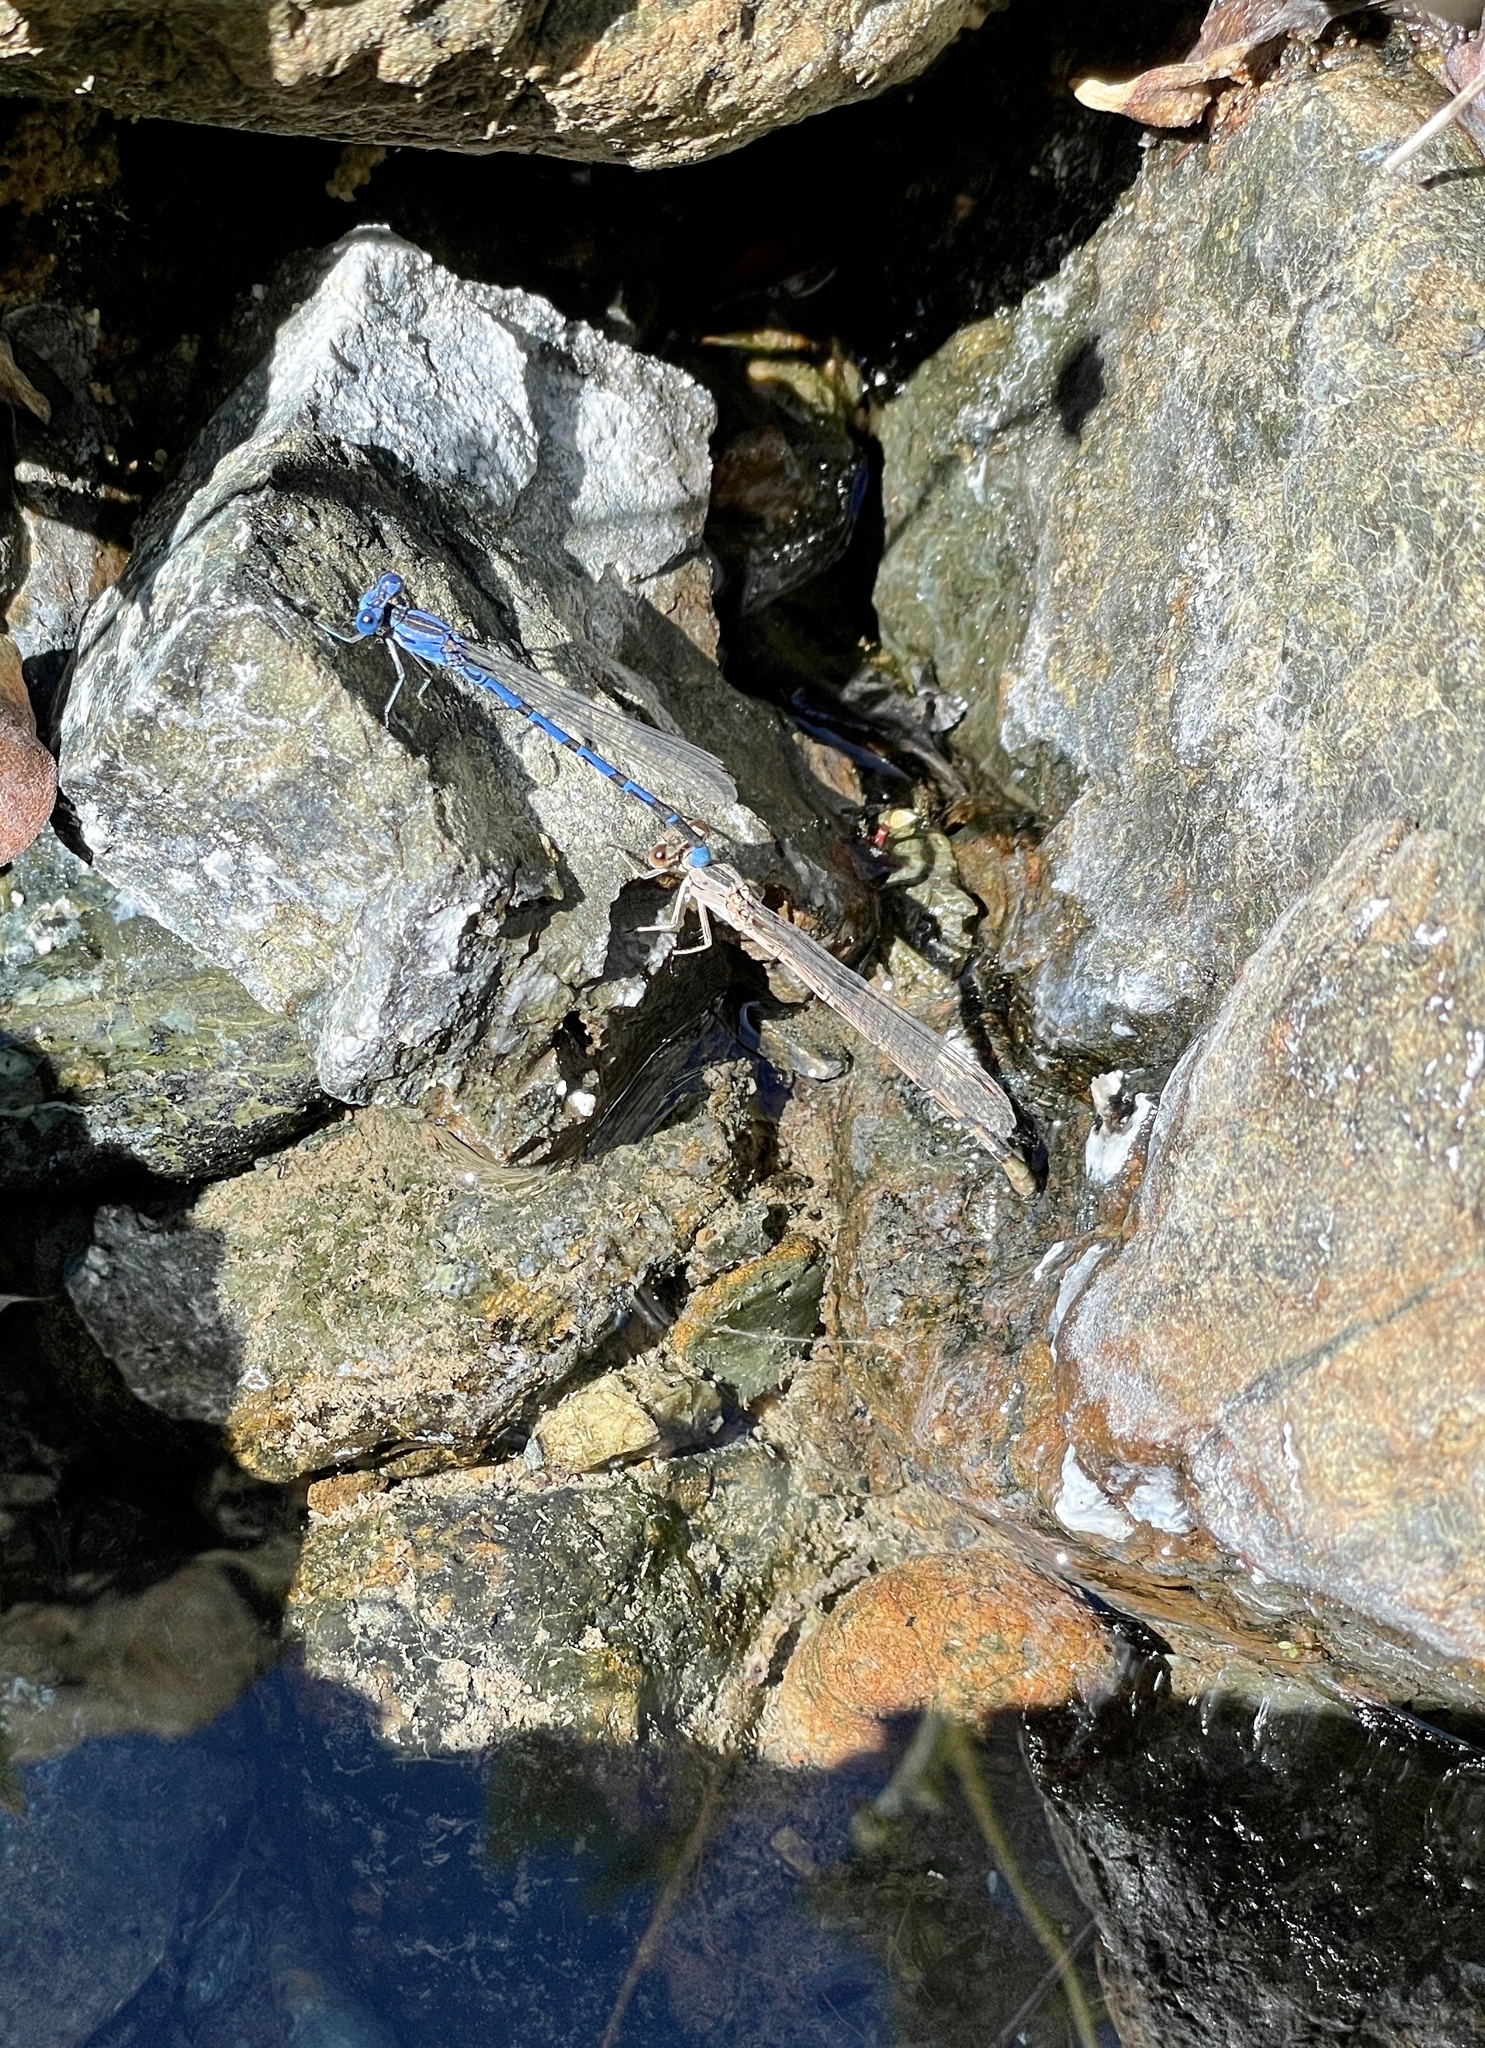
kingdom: Animalia
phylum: Arthropoda
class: Insecta
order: Odonata
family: Coenagrionidae
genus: Argia
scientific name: Argia vivida
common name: Vivid dancer
